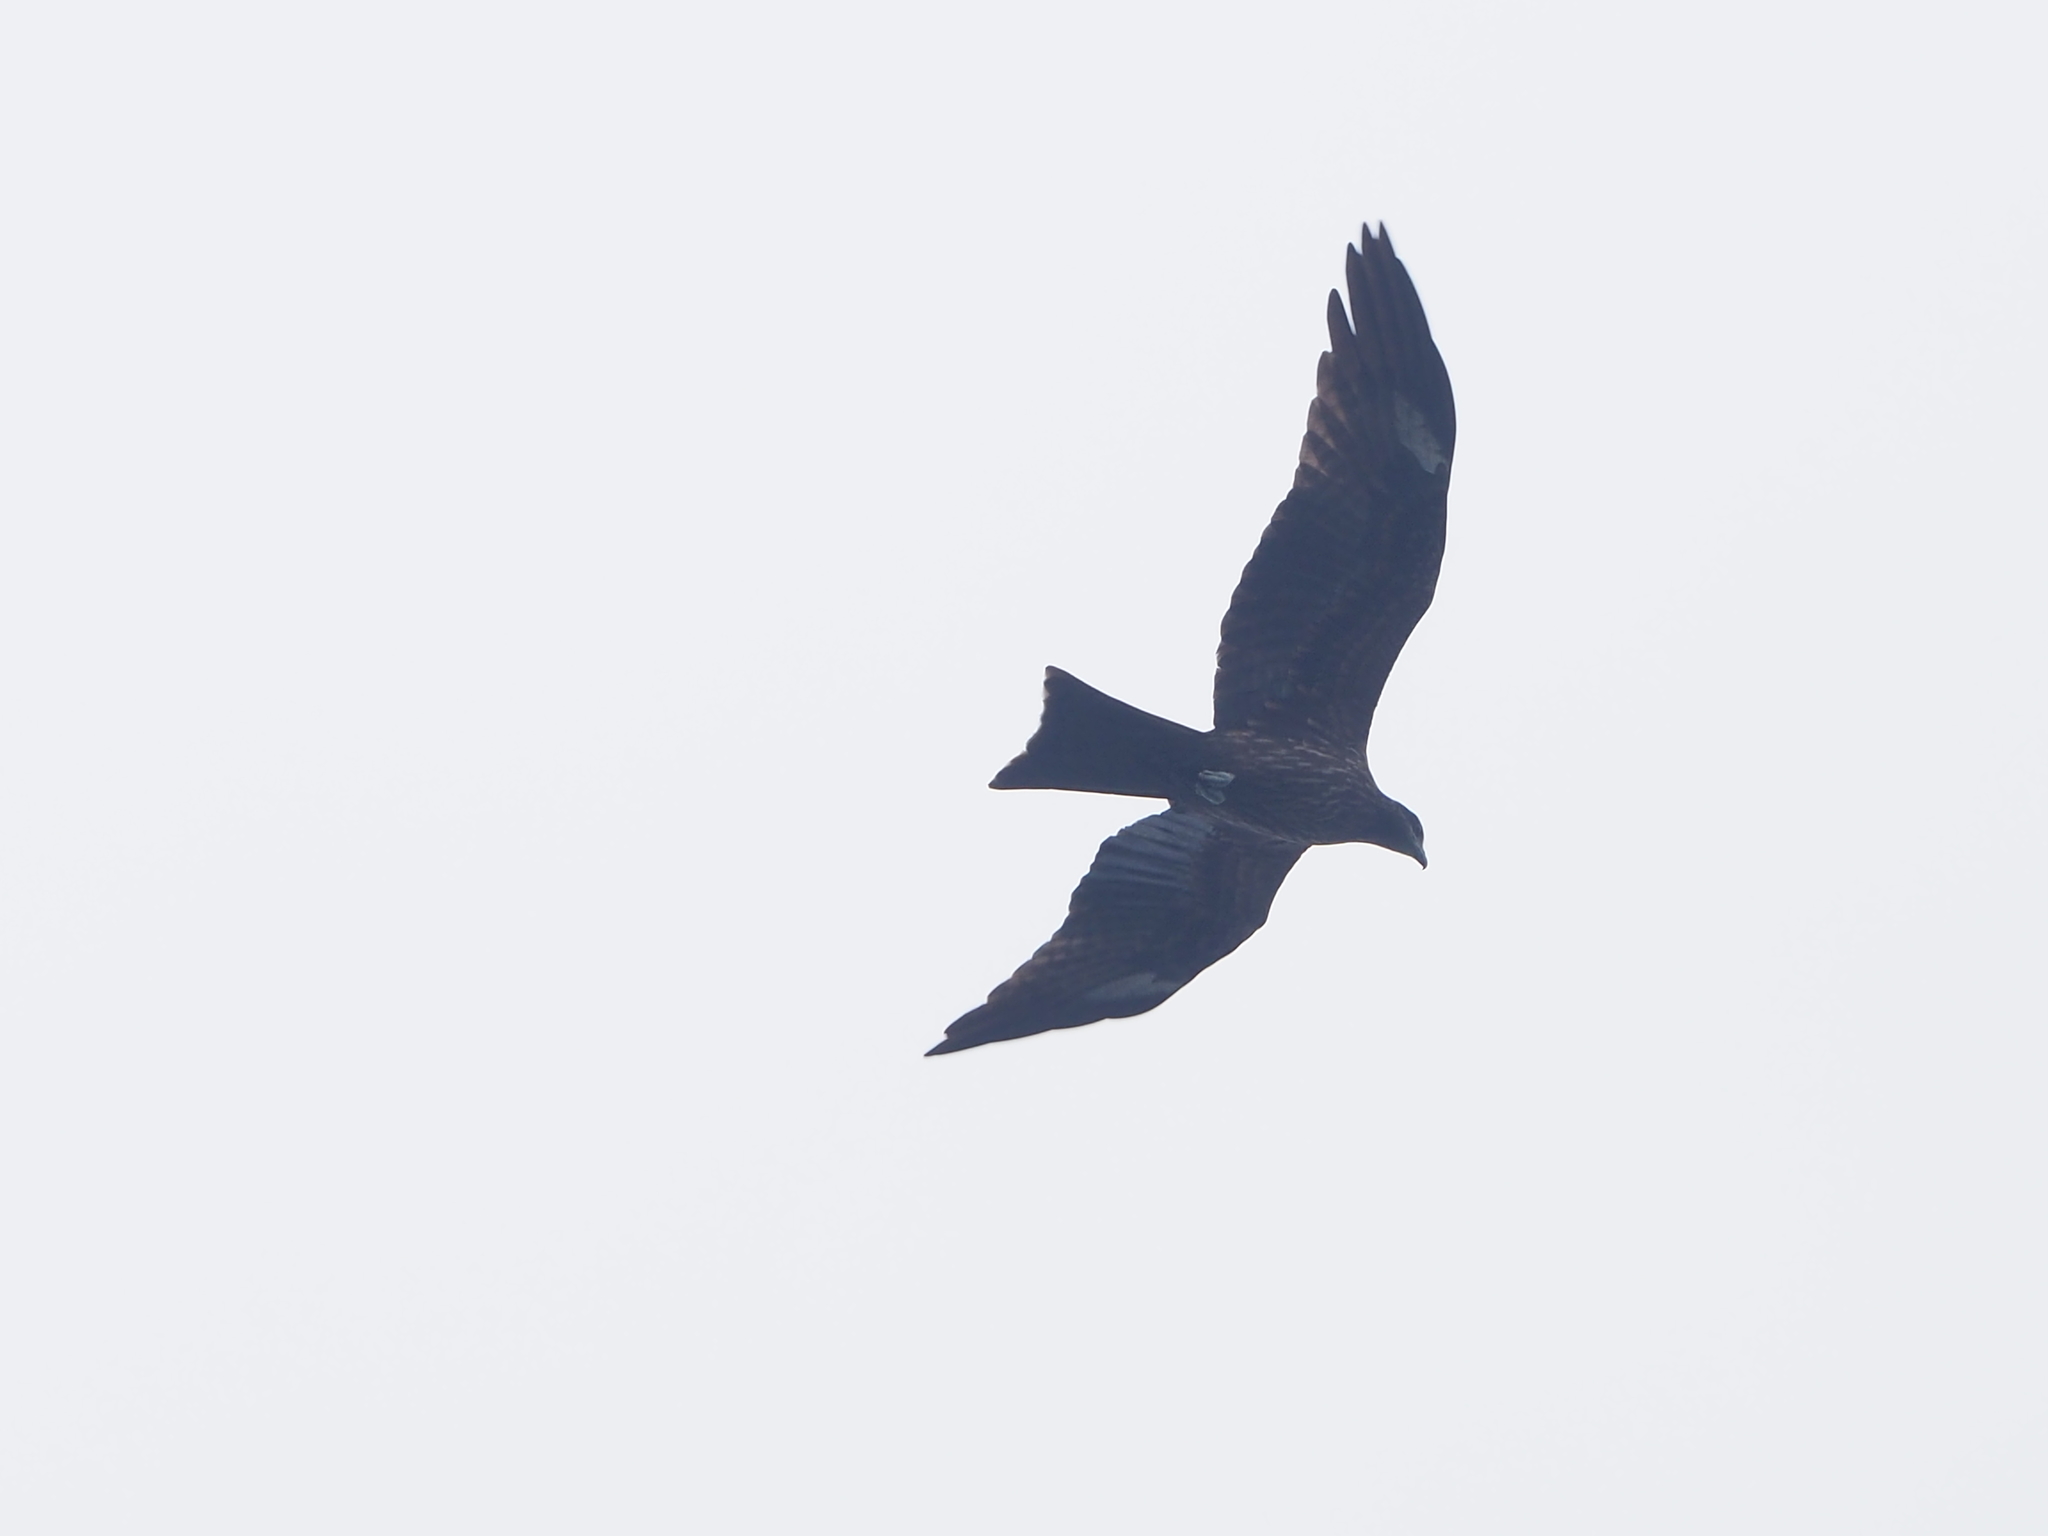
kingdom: Animalia
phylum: Chordata
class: Aves
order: Accipitriformes
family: Accipitridae
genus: Milvus
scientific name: Milvus migrans
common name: Black kite
